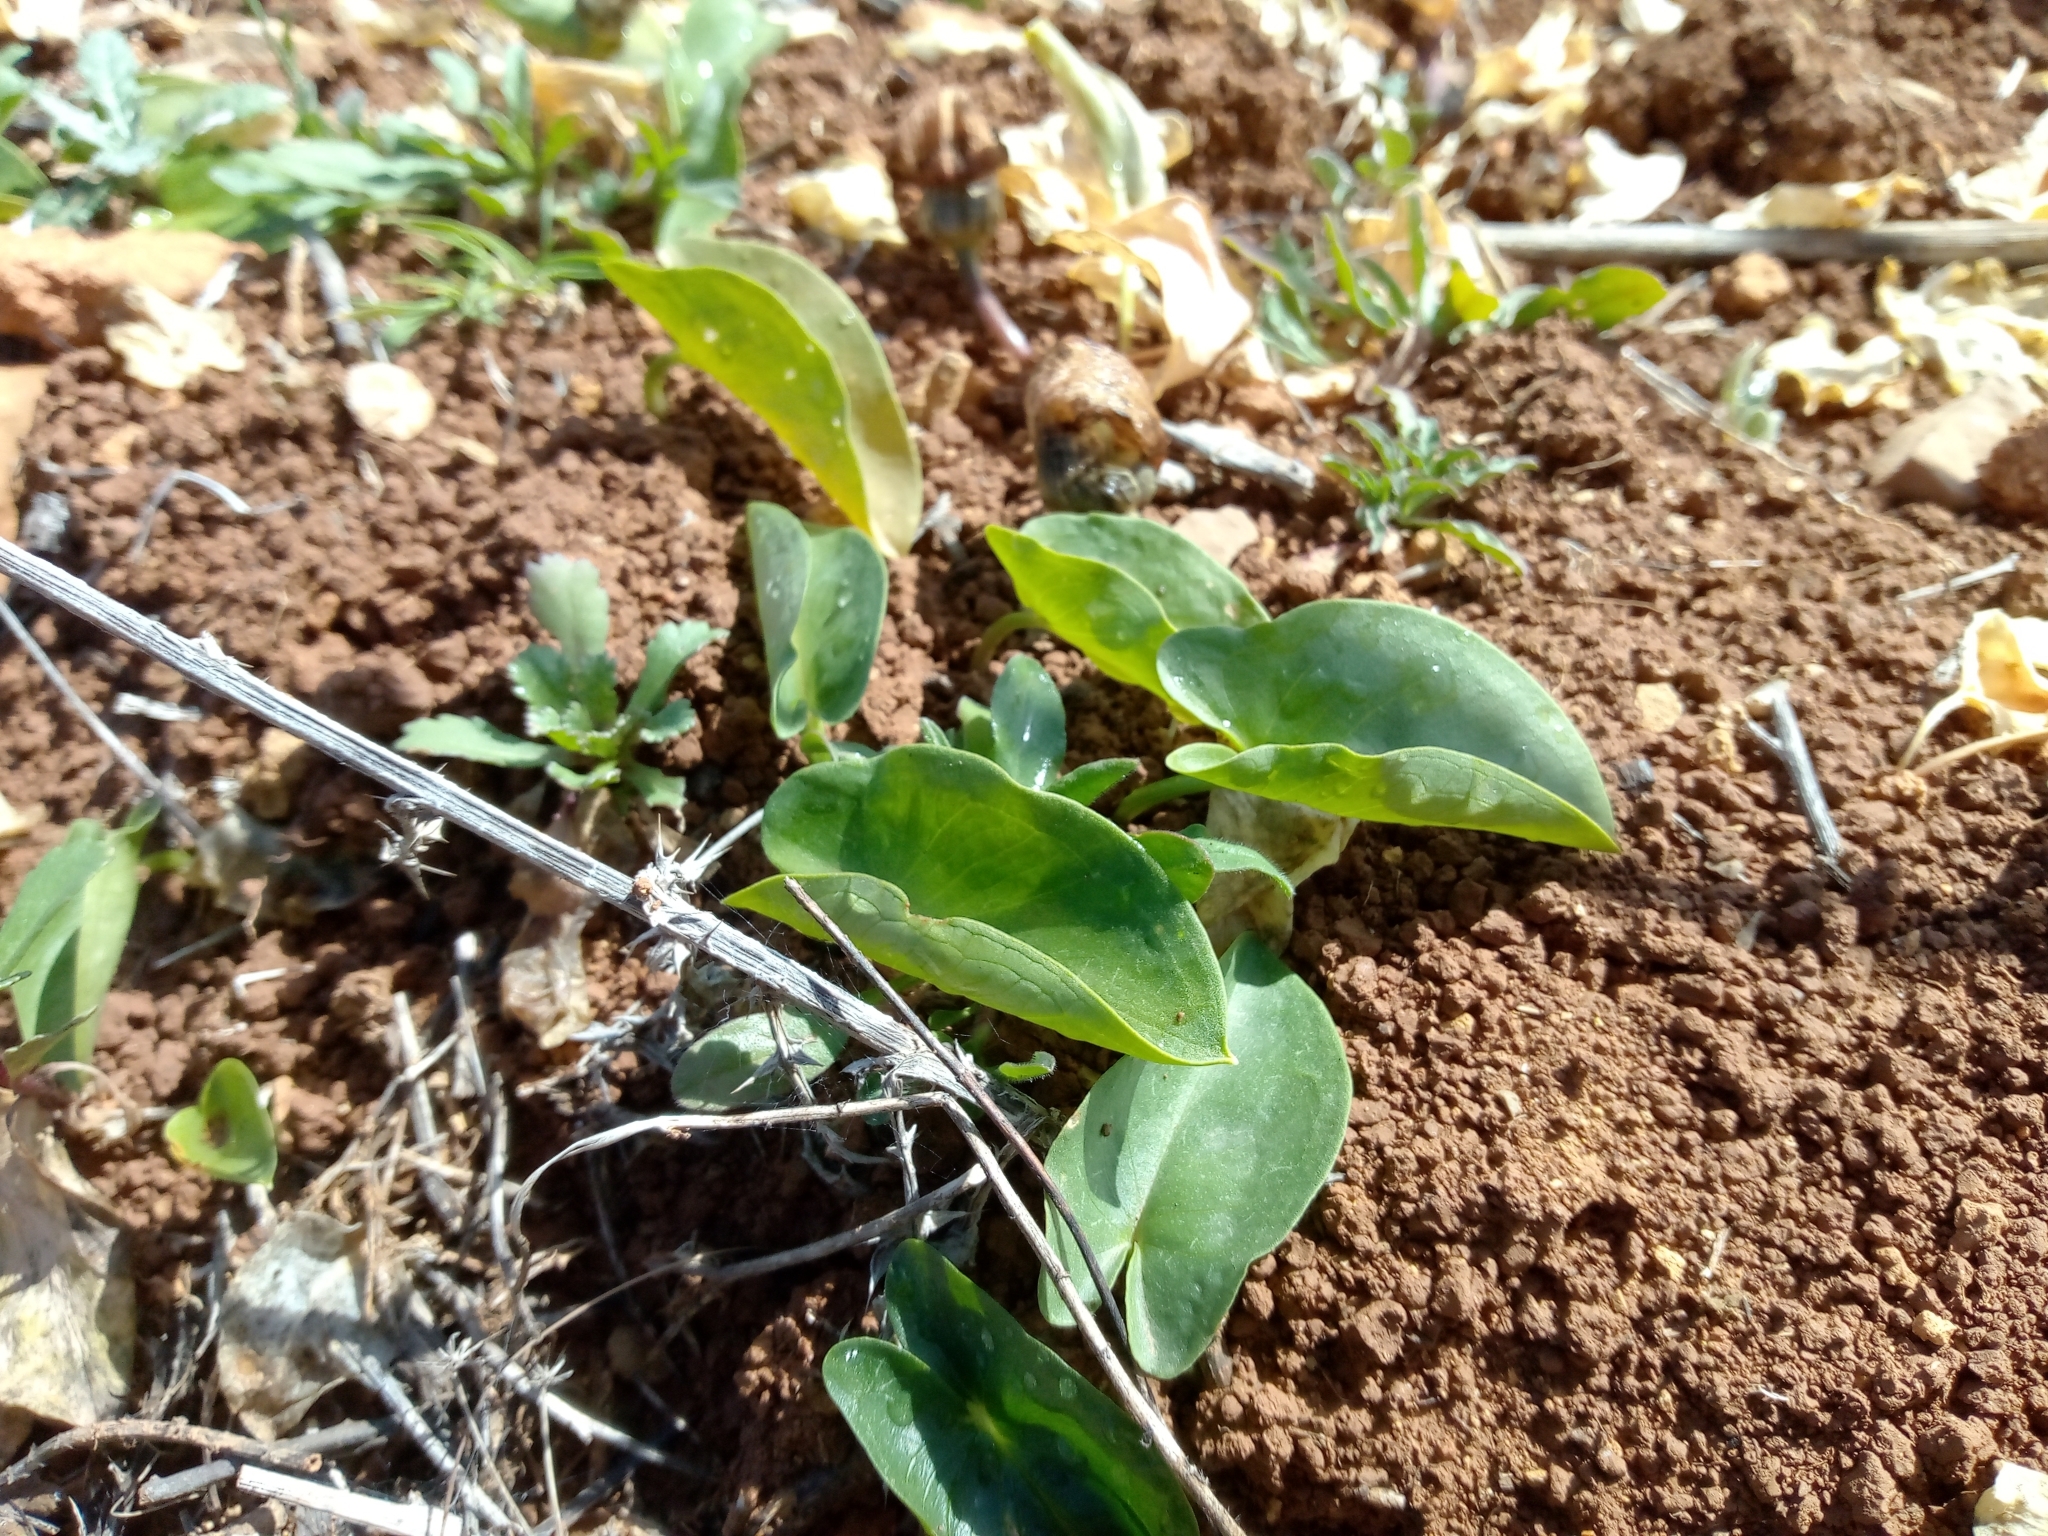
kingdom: Plantae
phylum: Tracheophyta
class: Liliopsida
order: Alismatales
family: Araceae
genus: Arisarum
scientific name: Arisarum simorrhinum
